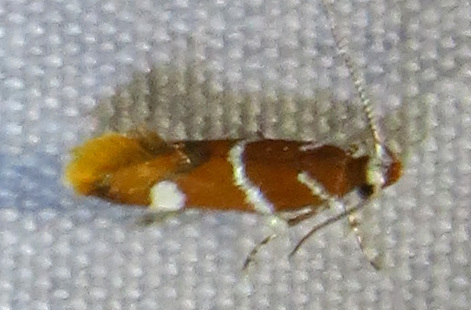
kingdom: Animalia
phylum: Arthropoda
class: Insecta
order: Lepidoptera
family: Oecophoridae
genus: Promalactis
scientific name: Promalactis suzukiella
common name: Moth
